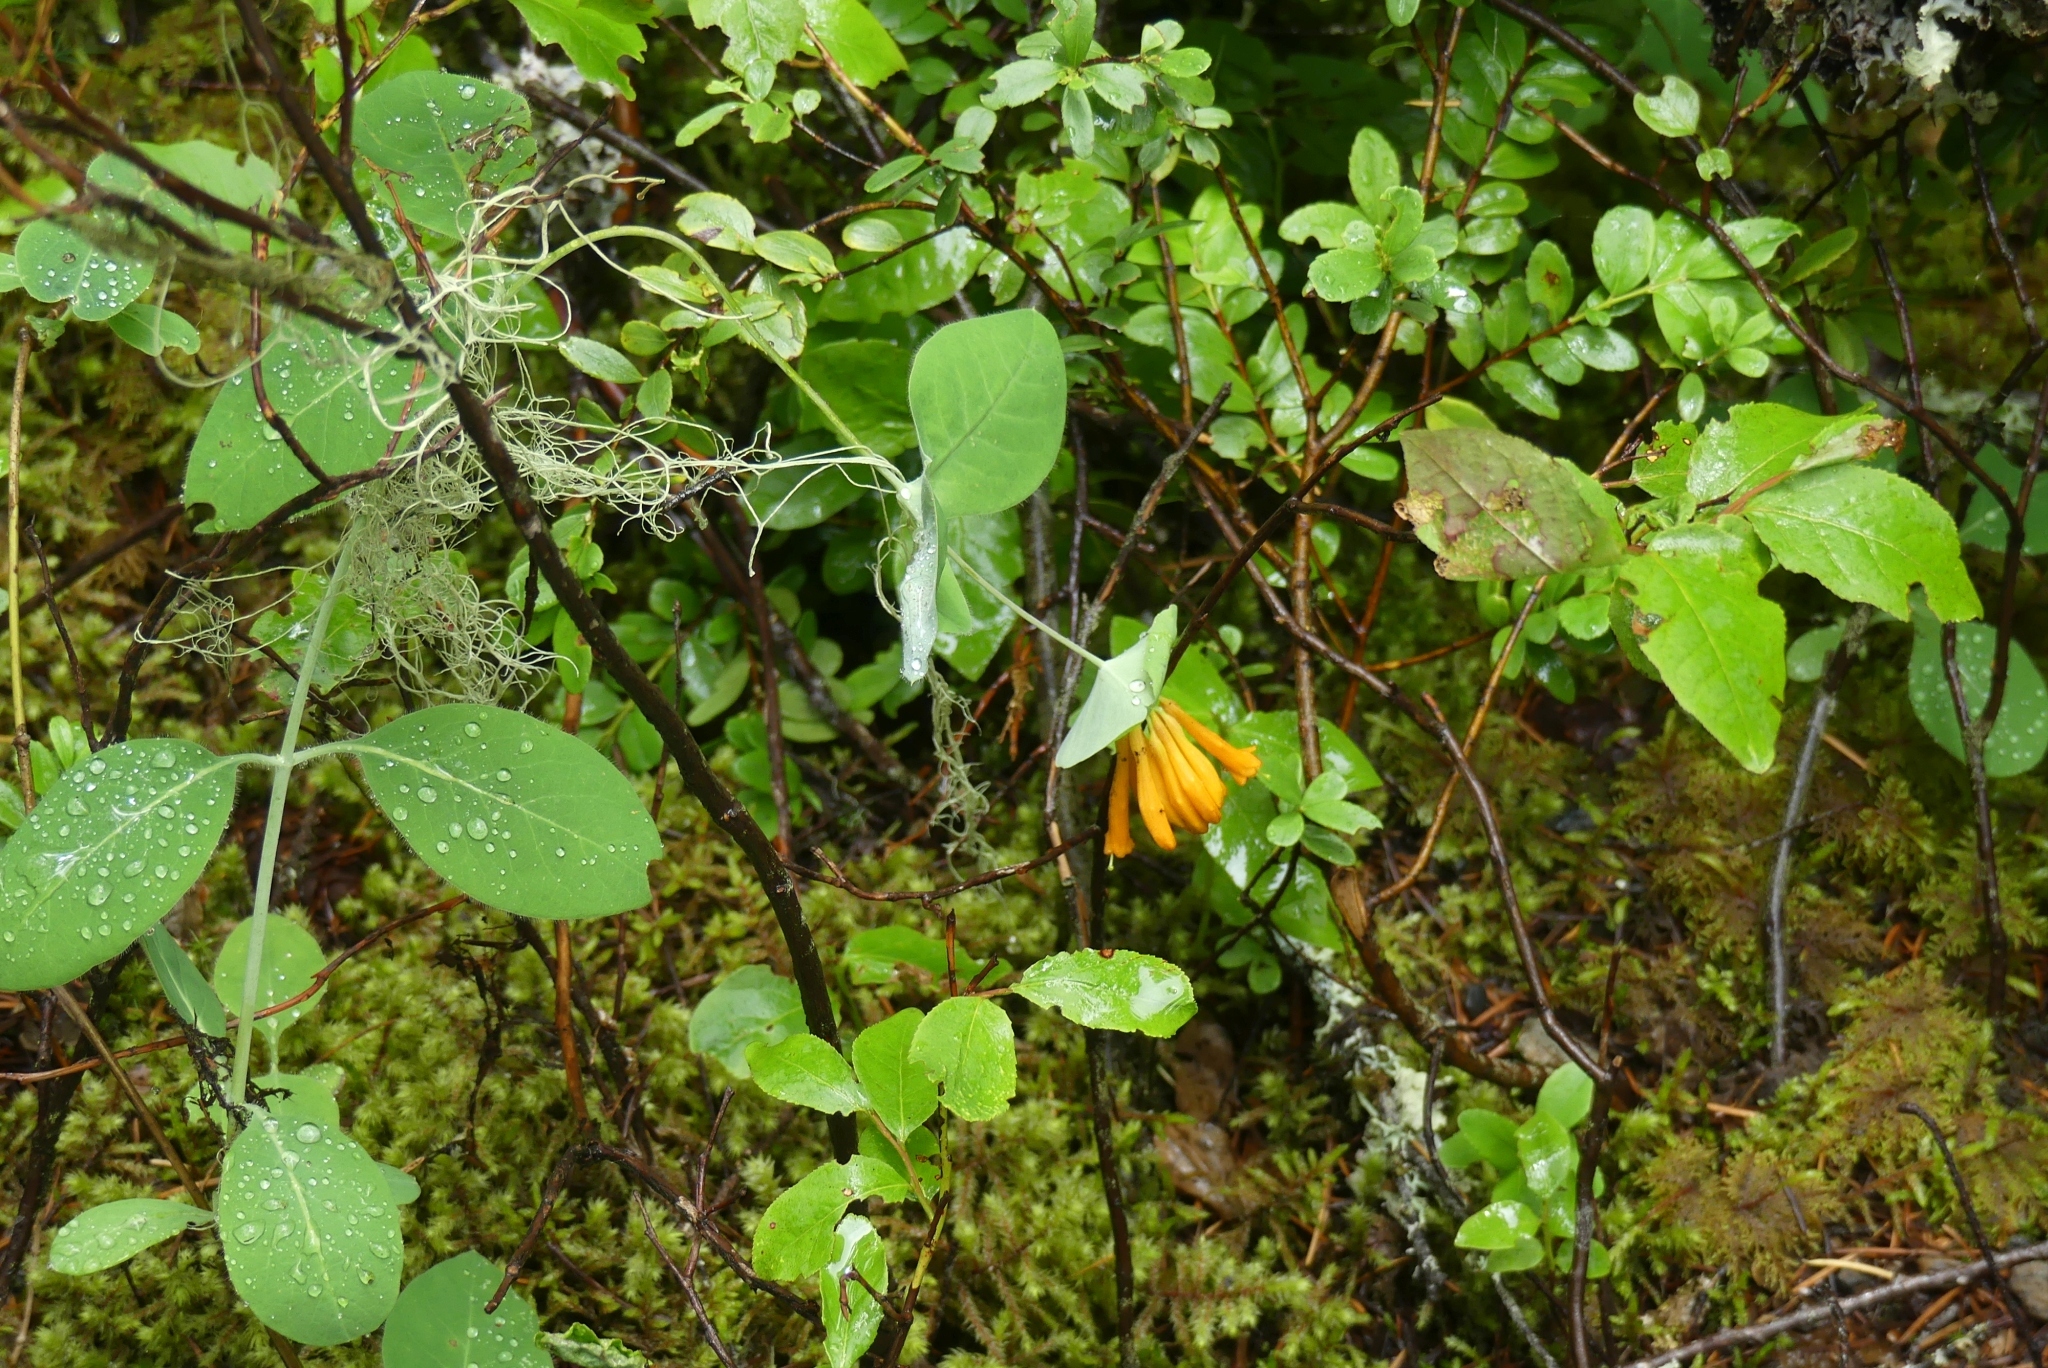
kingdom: Plantae
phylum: Tracheophyta
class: Magnoliopsida
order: Dipsacales
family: Caprifoliaceae
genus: Lonicera
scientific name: Lonicera ciliosa
